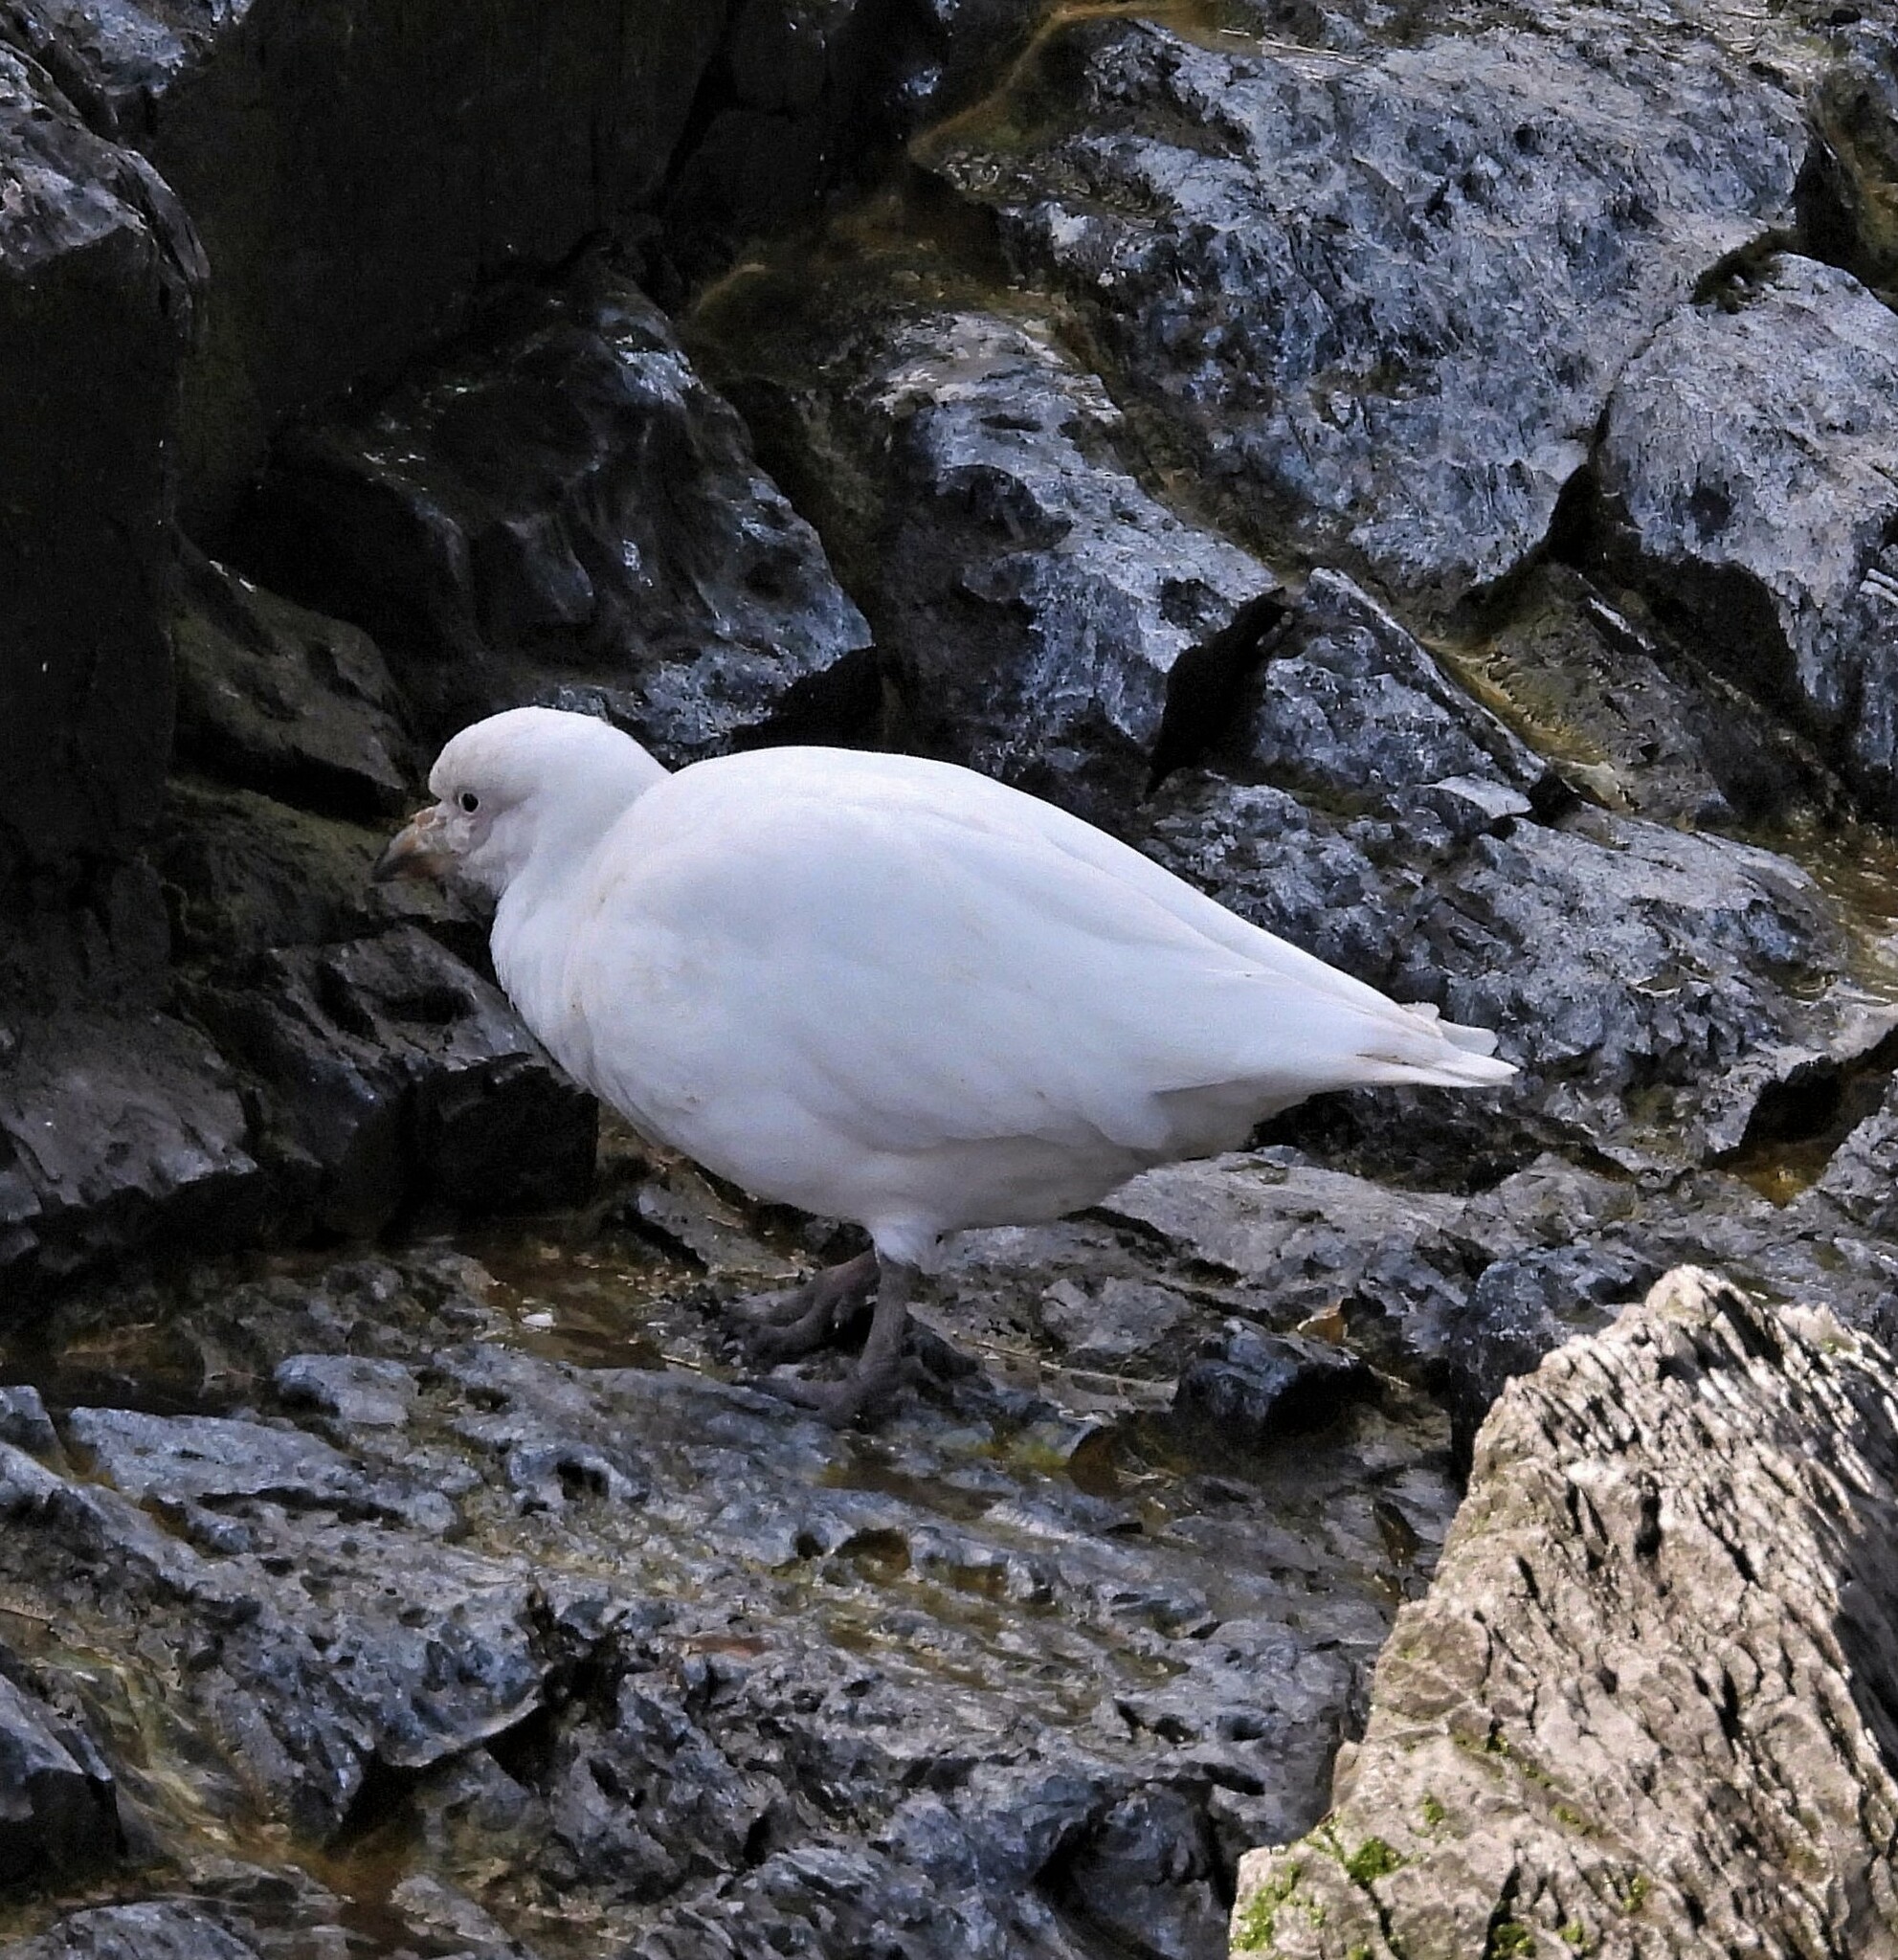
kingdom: Animalia
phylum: Chordata
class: Aves
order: Charadriiformes
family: Chionidae
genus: Chionis
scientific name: Chionis albus
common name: Snowy sheathbill
